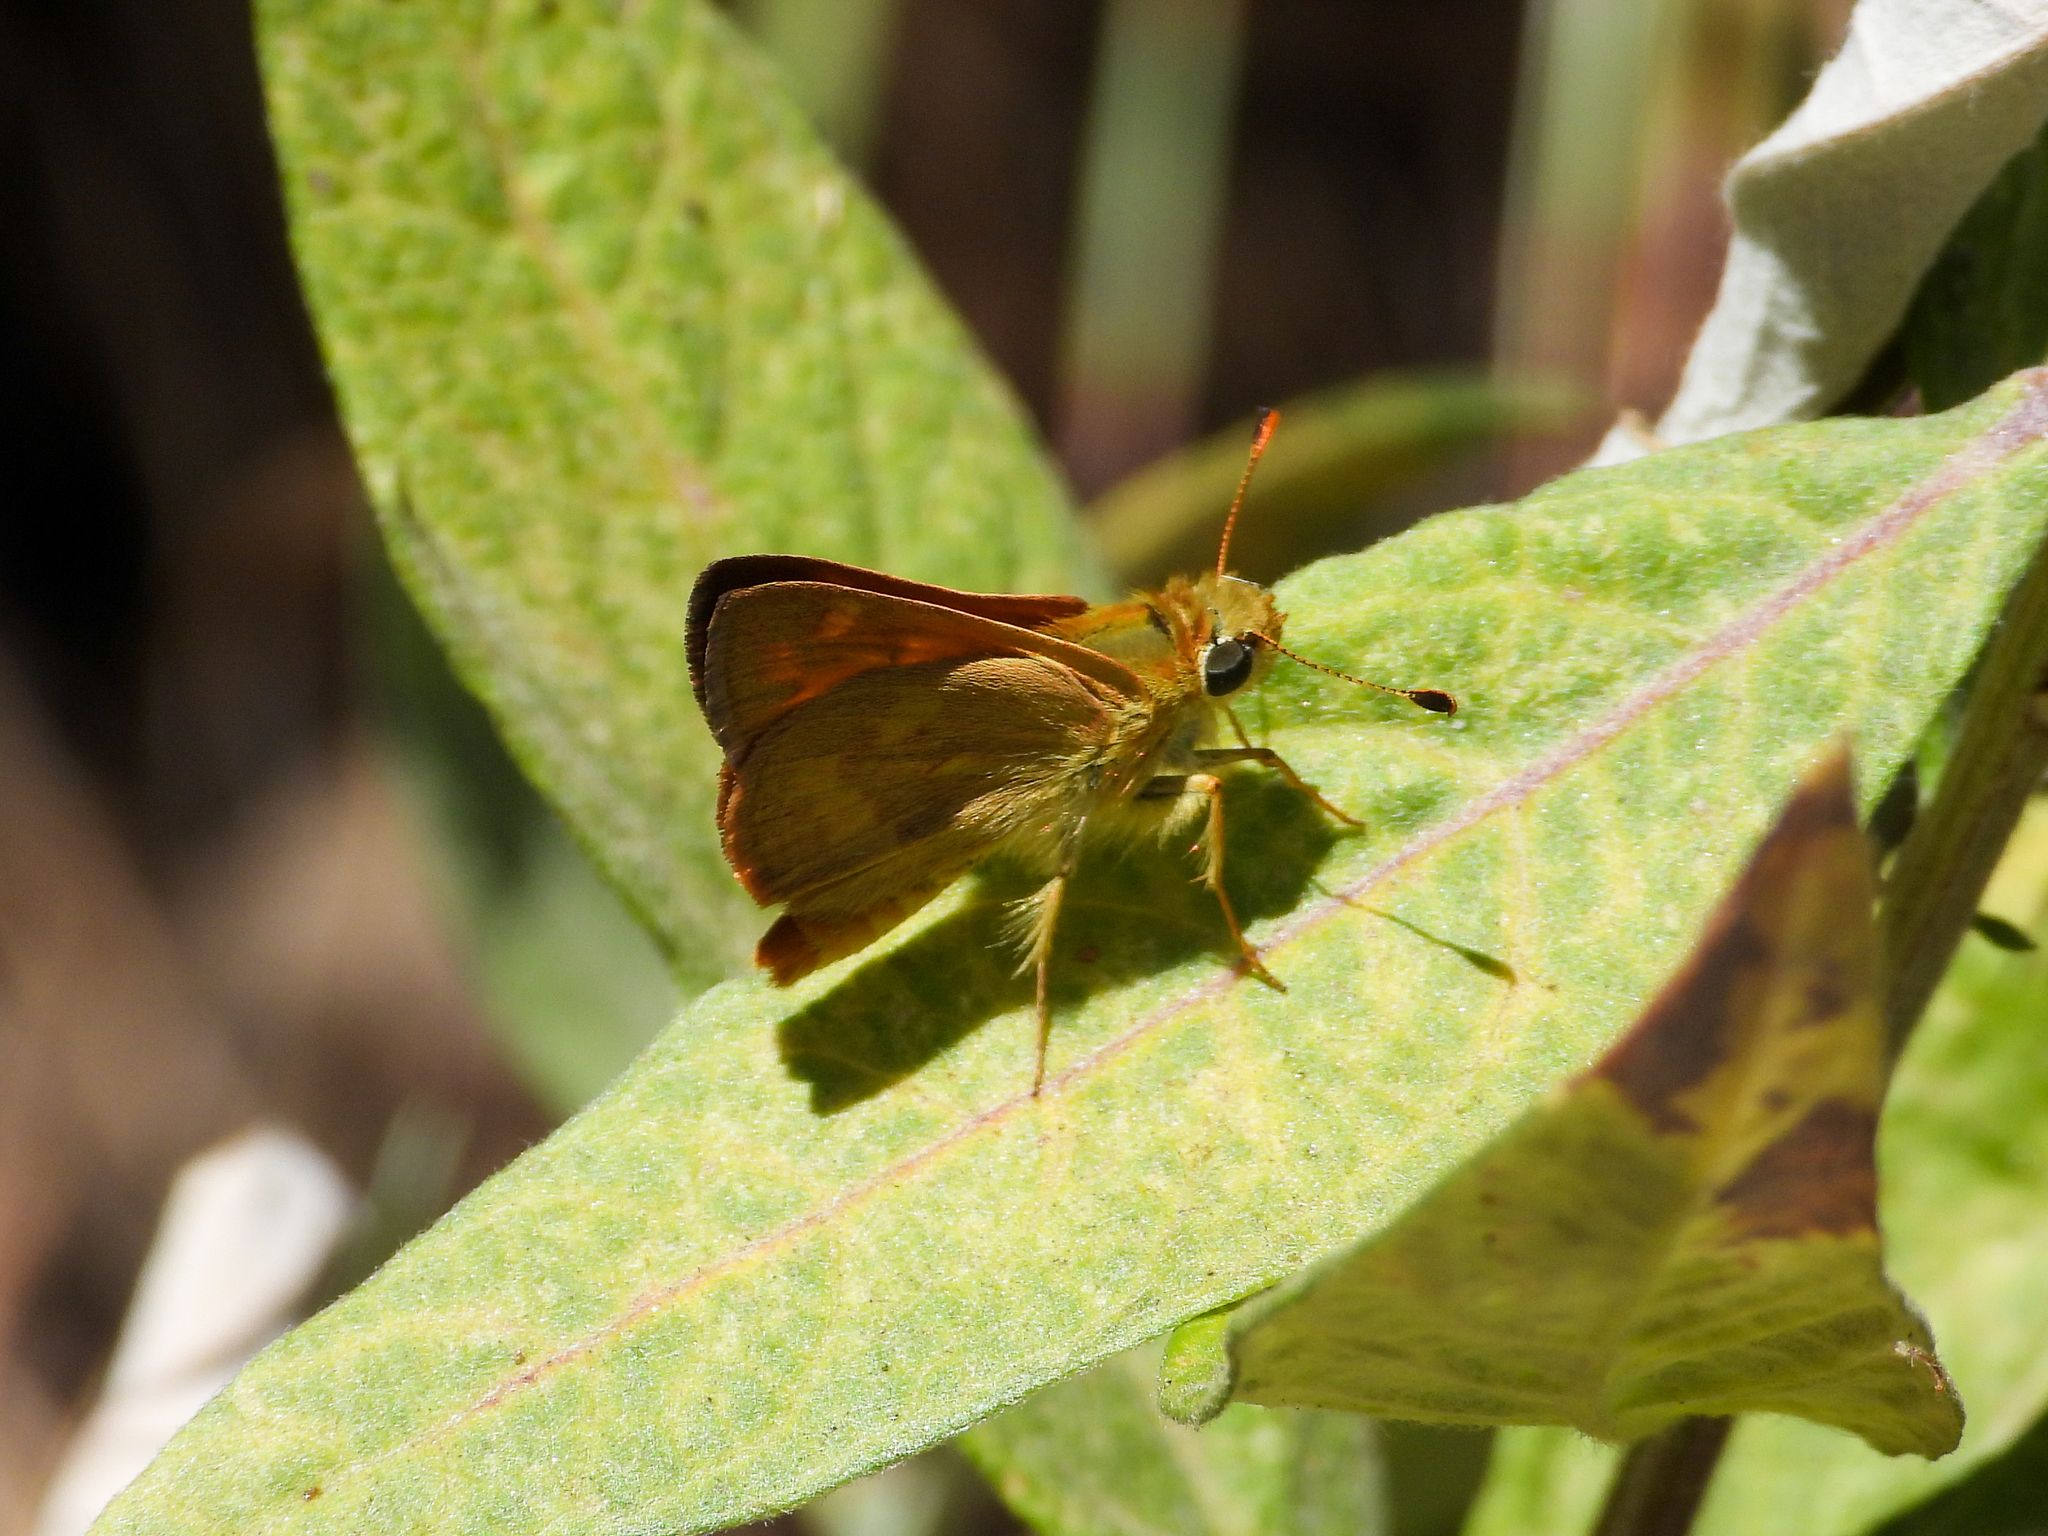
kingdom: Animalia
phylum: Arthropoda
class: Insecta
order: Lepidoptera
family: Hesperiidae
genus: Ochlodes
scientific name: Ochlodes sylvanoides
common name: Woodland skipper
